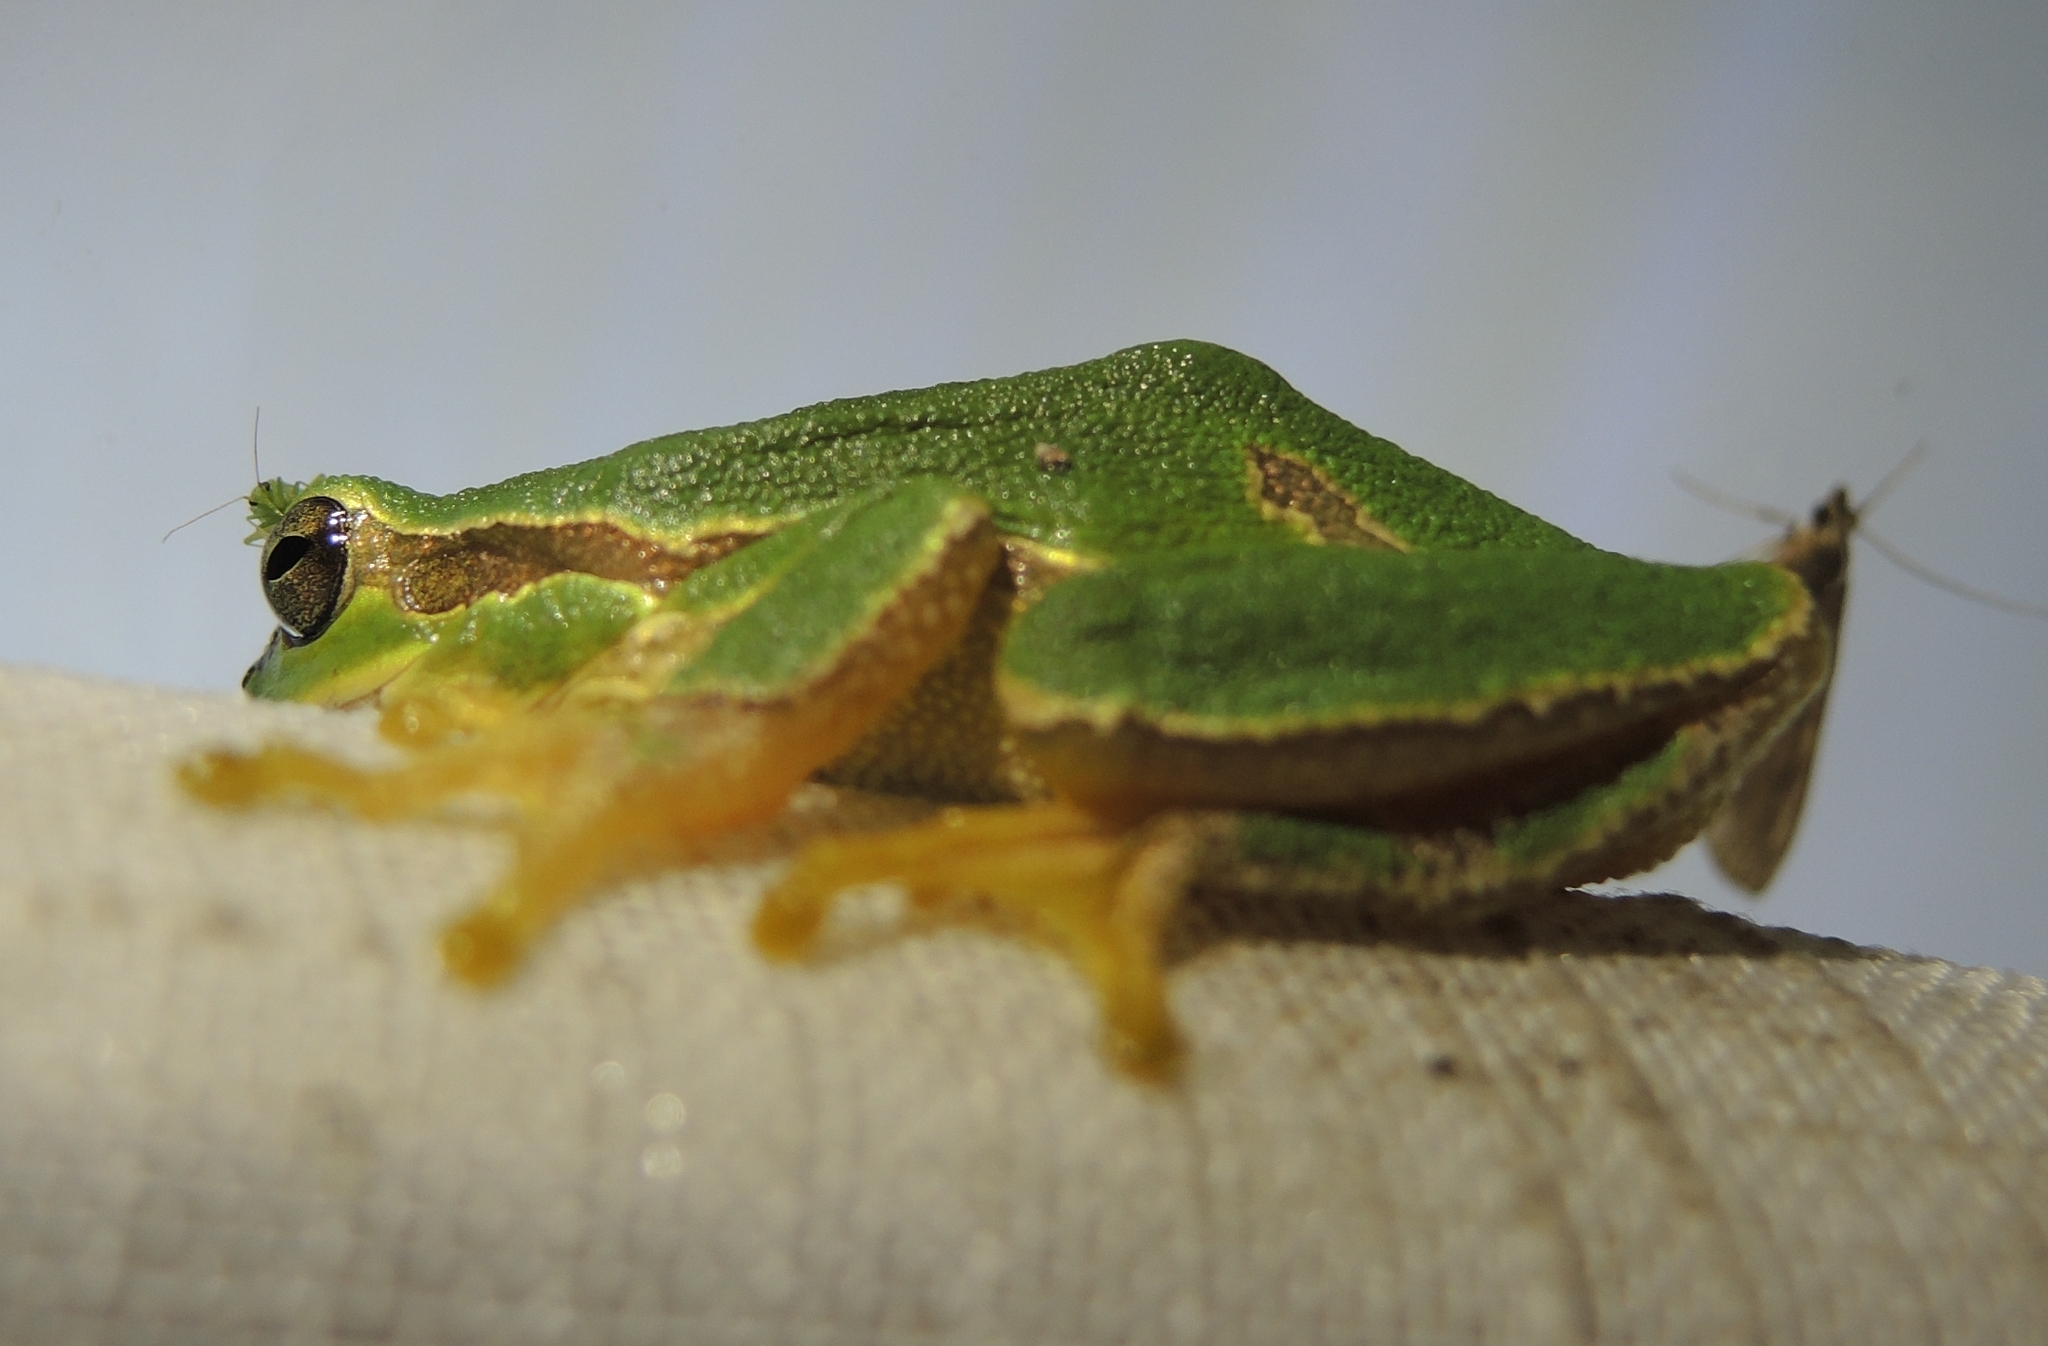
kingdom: Animalia
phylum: Chordata
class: Amphibia
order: Anura
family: Hylidae
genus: Hyla
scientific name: Hyla orientalis
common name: Caucasian treefrog
